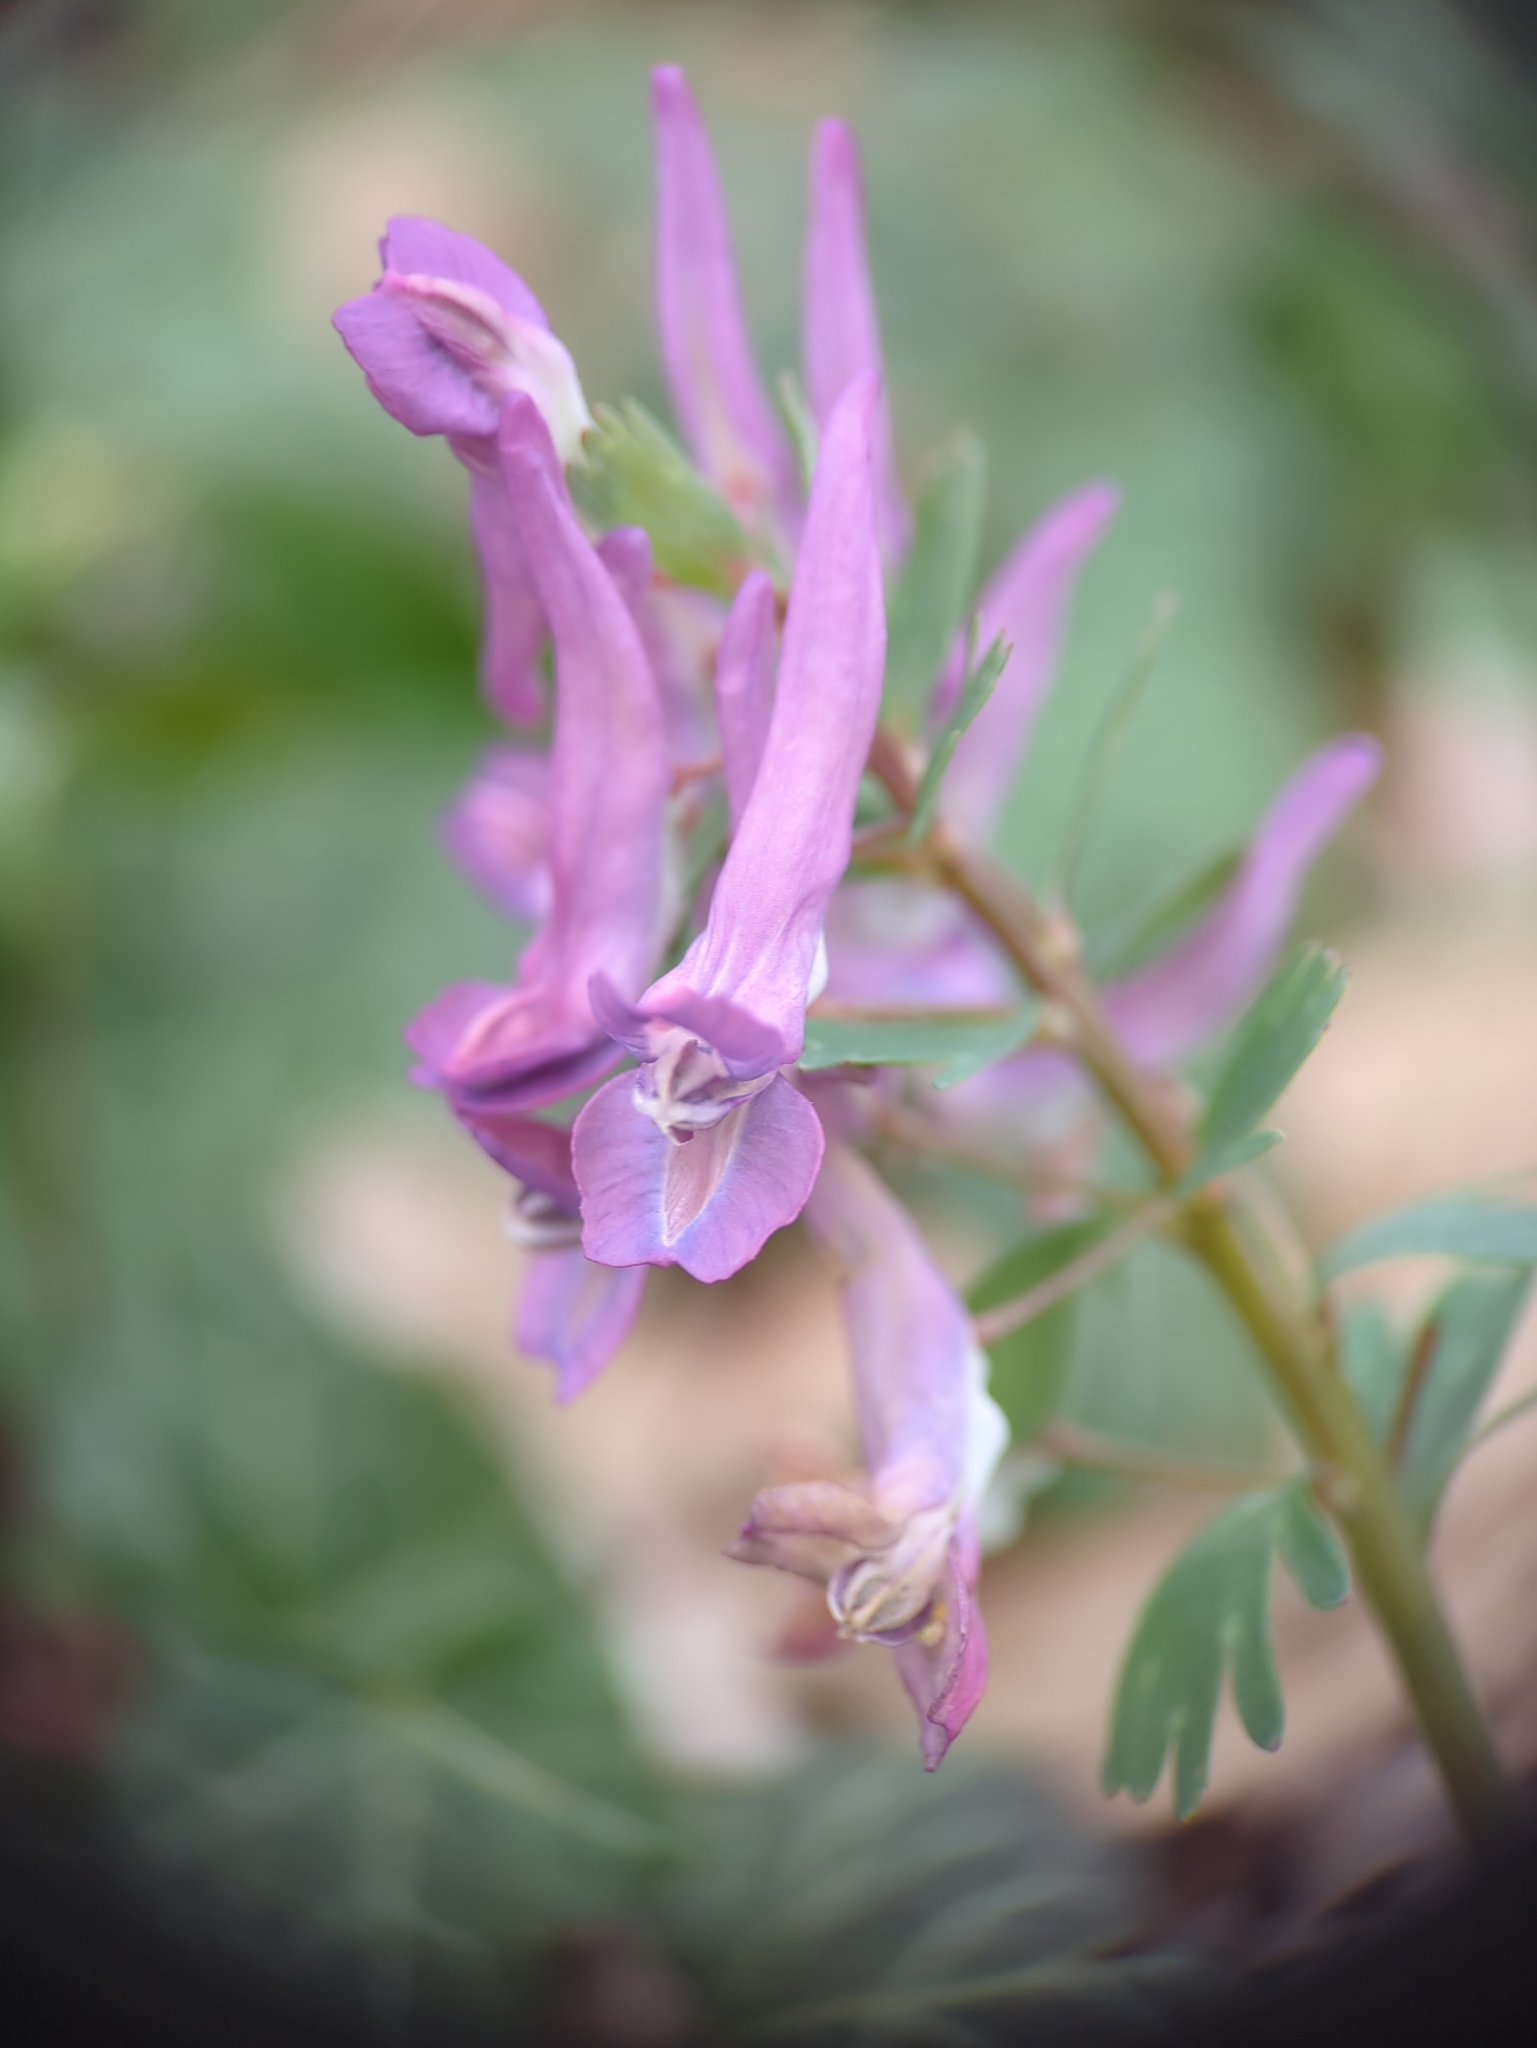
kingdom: Plantae
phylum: Tracheophyta
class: Magnoliopsida
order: Ranunculales
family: Papaveraceae
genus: Corydalis
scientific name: Corydalis solida
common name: Bird-in-a-bush
